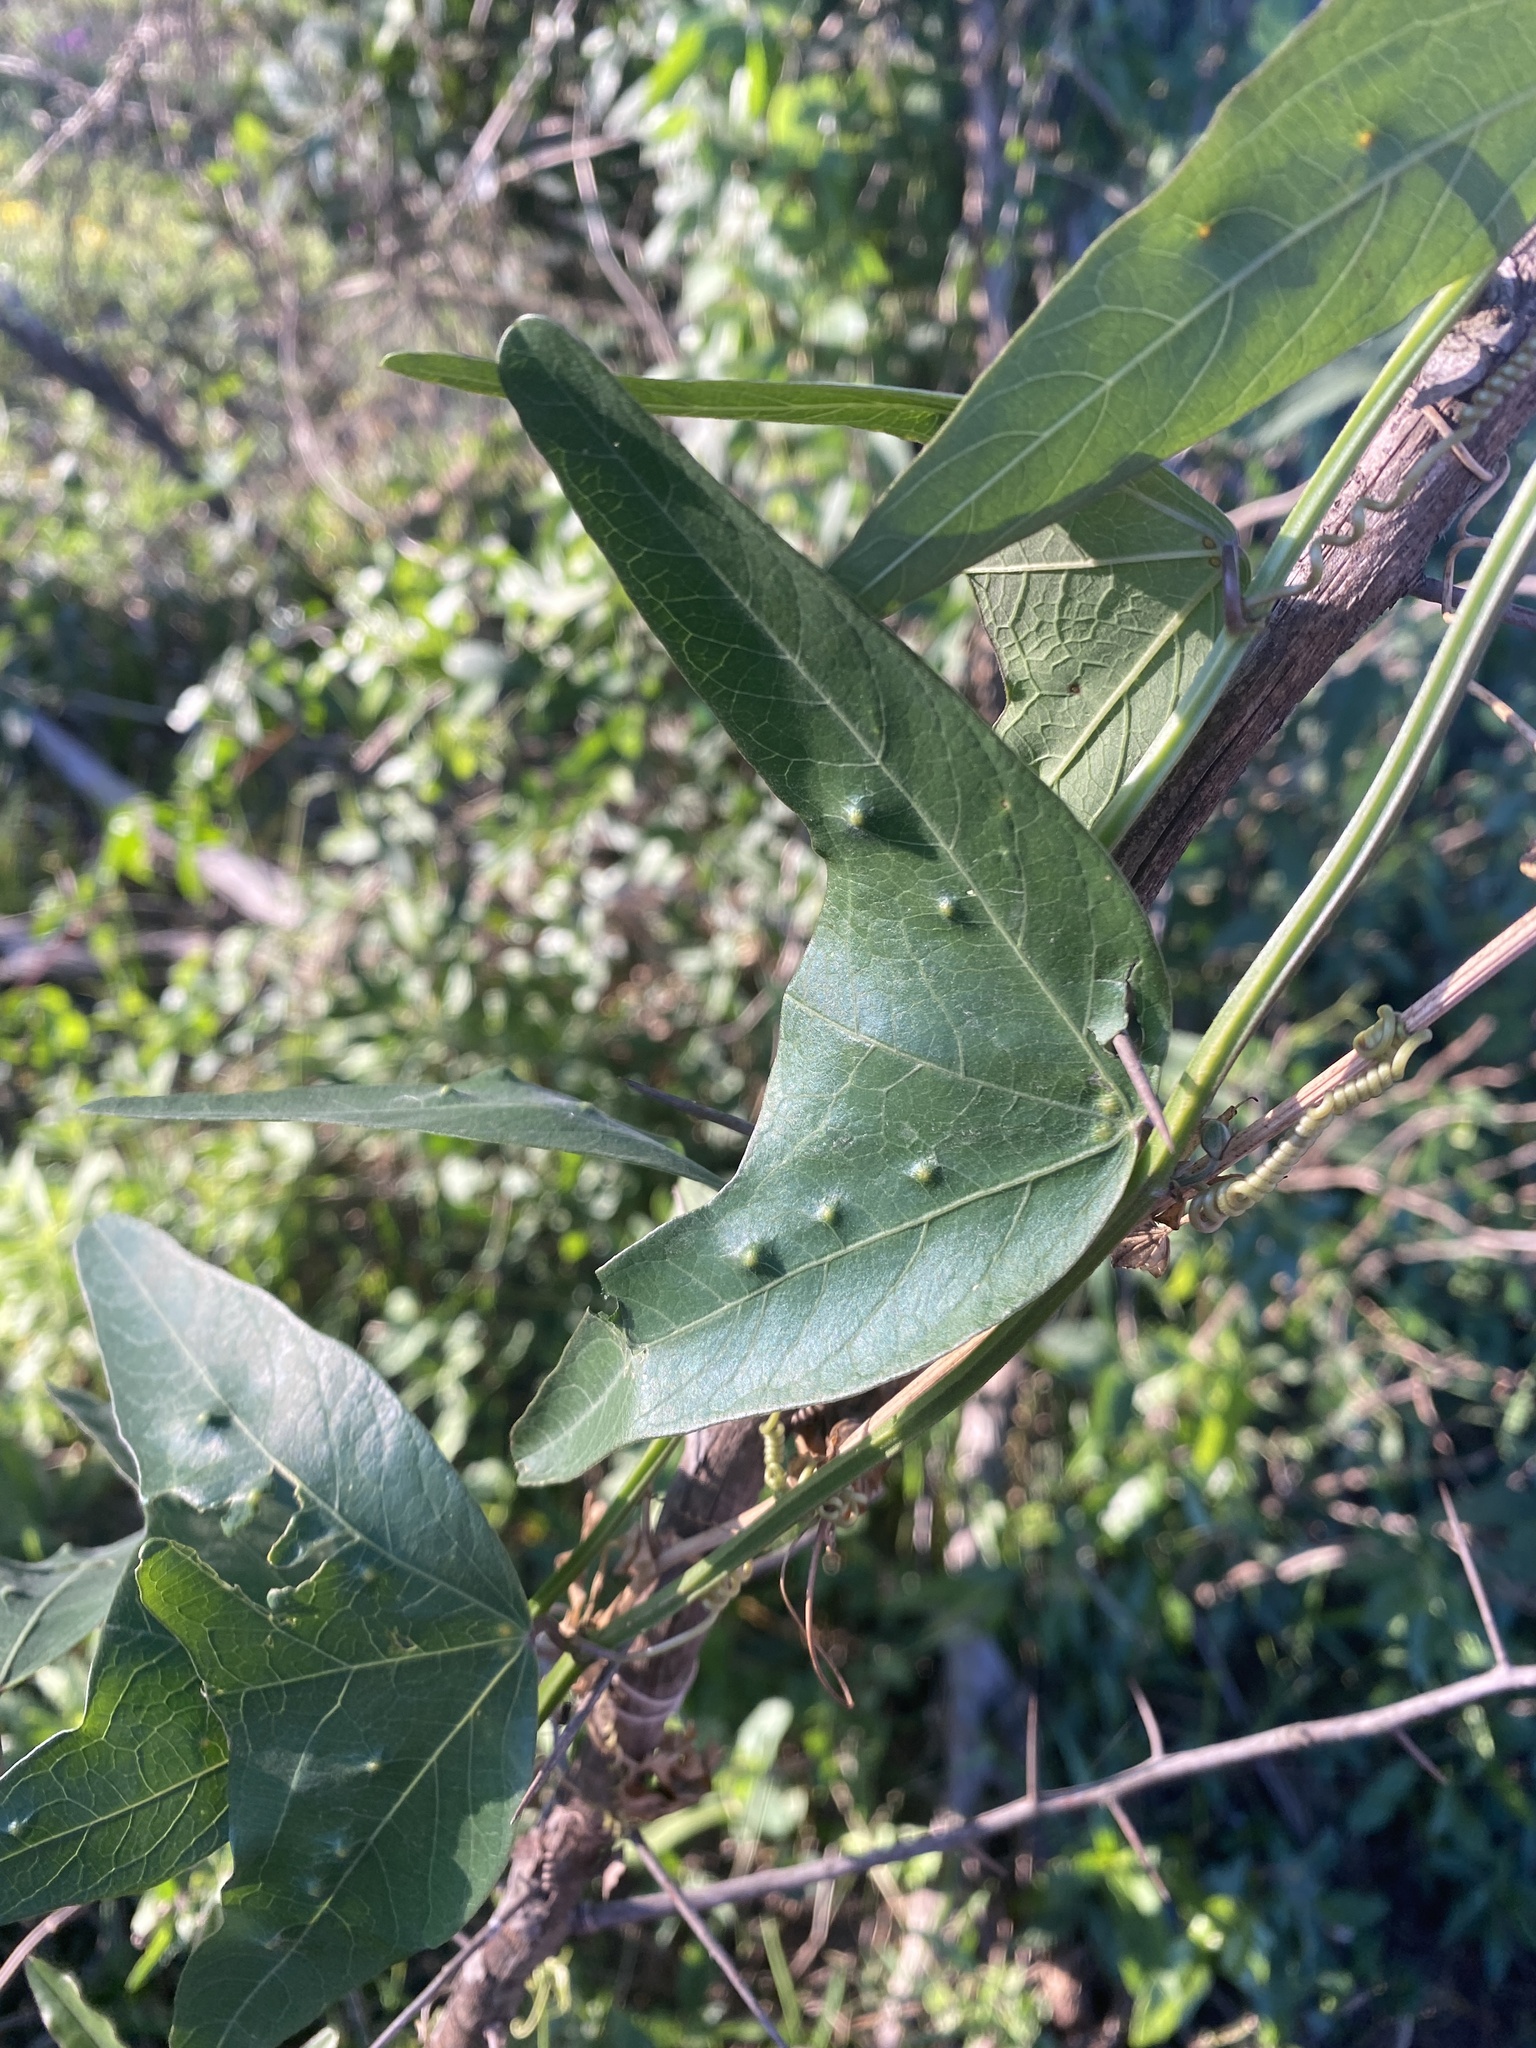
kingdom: Plantae
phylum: Tracheophyta
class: Magnoliopsida
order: Malpighiales
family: Passifloraceae
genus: Passiflora
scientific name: Passiflora misera
